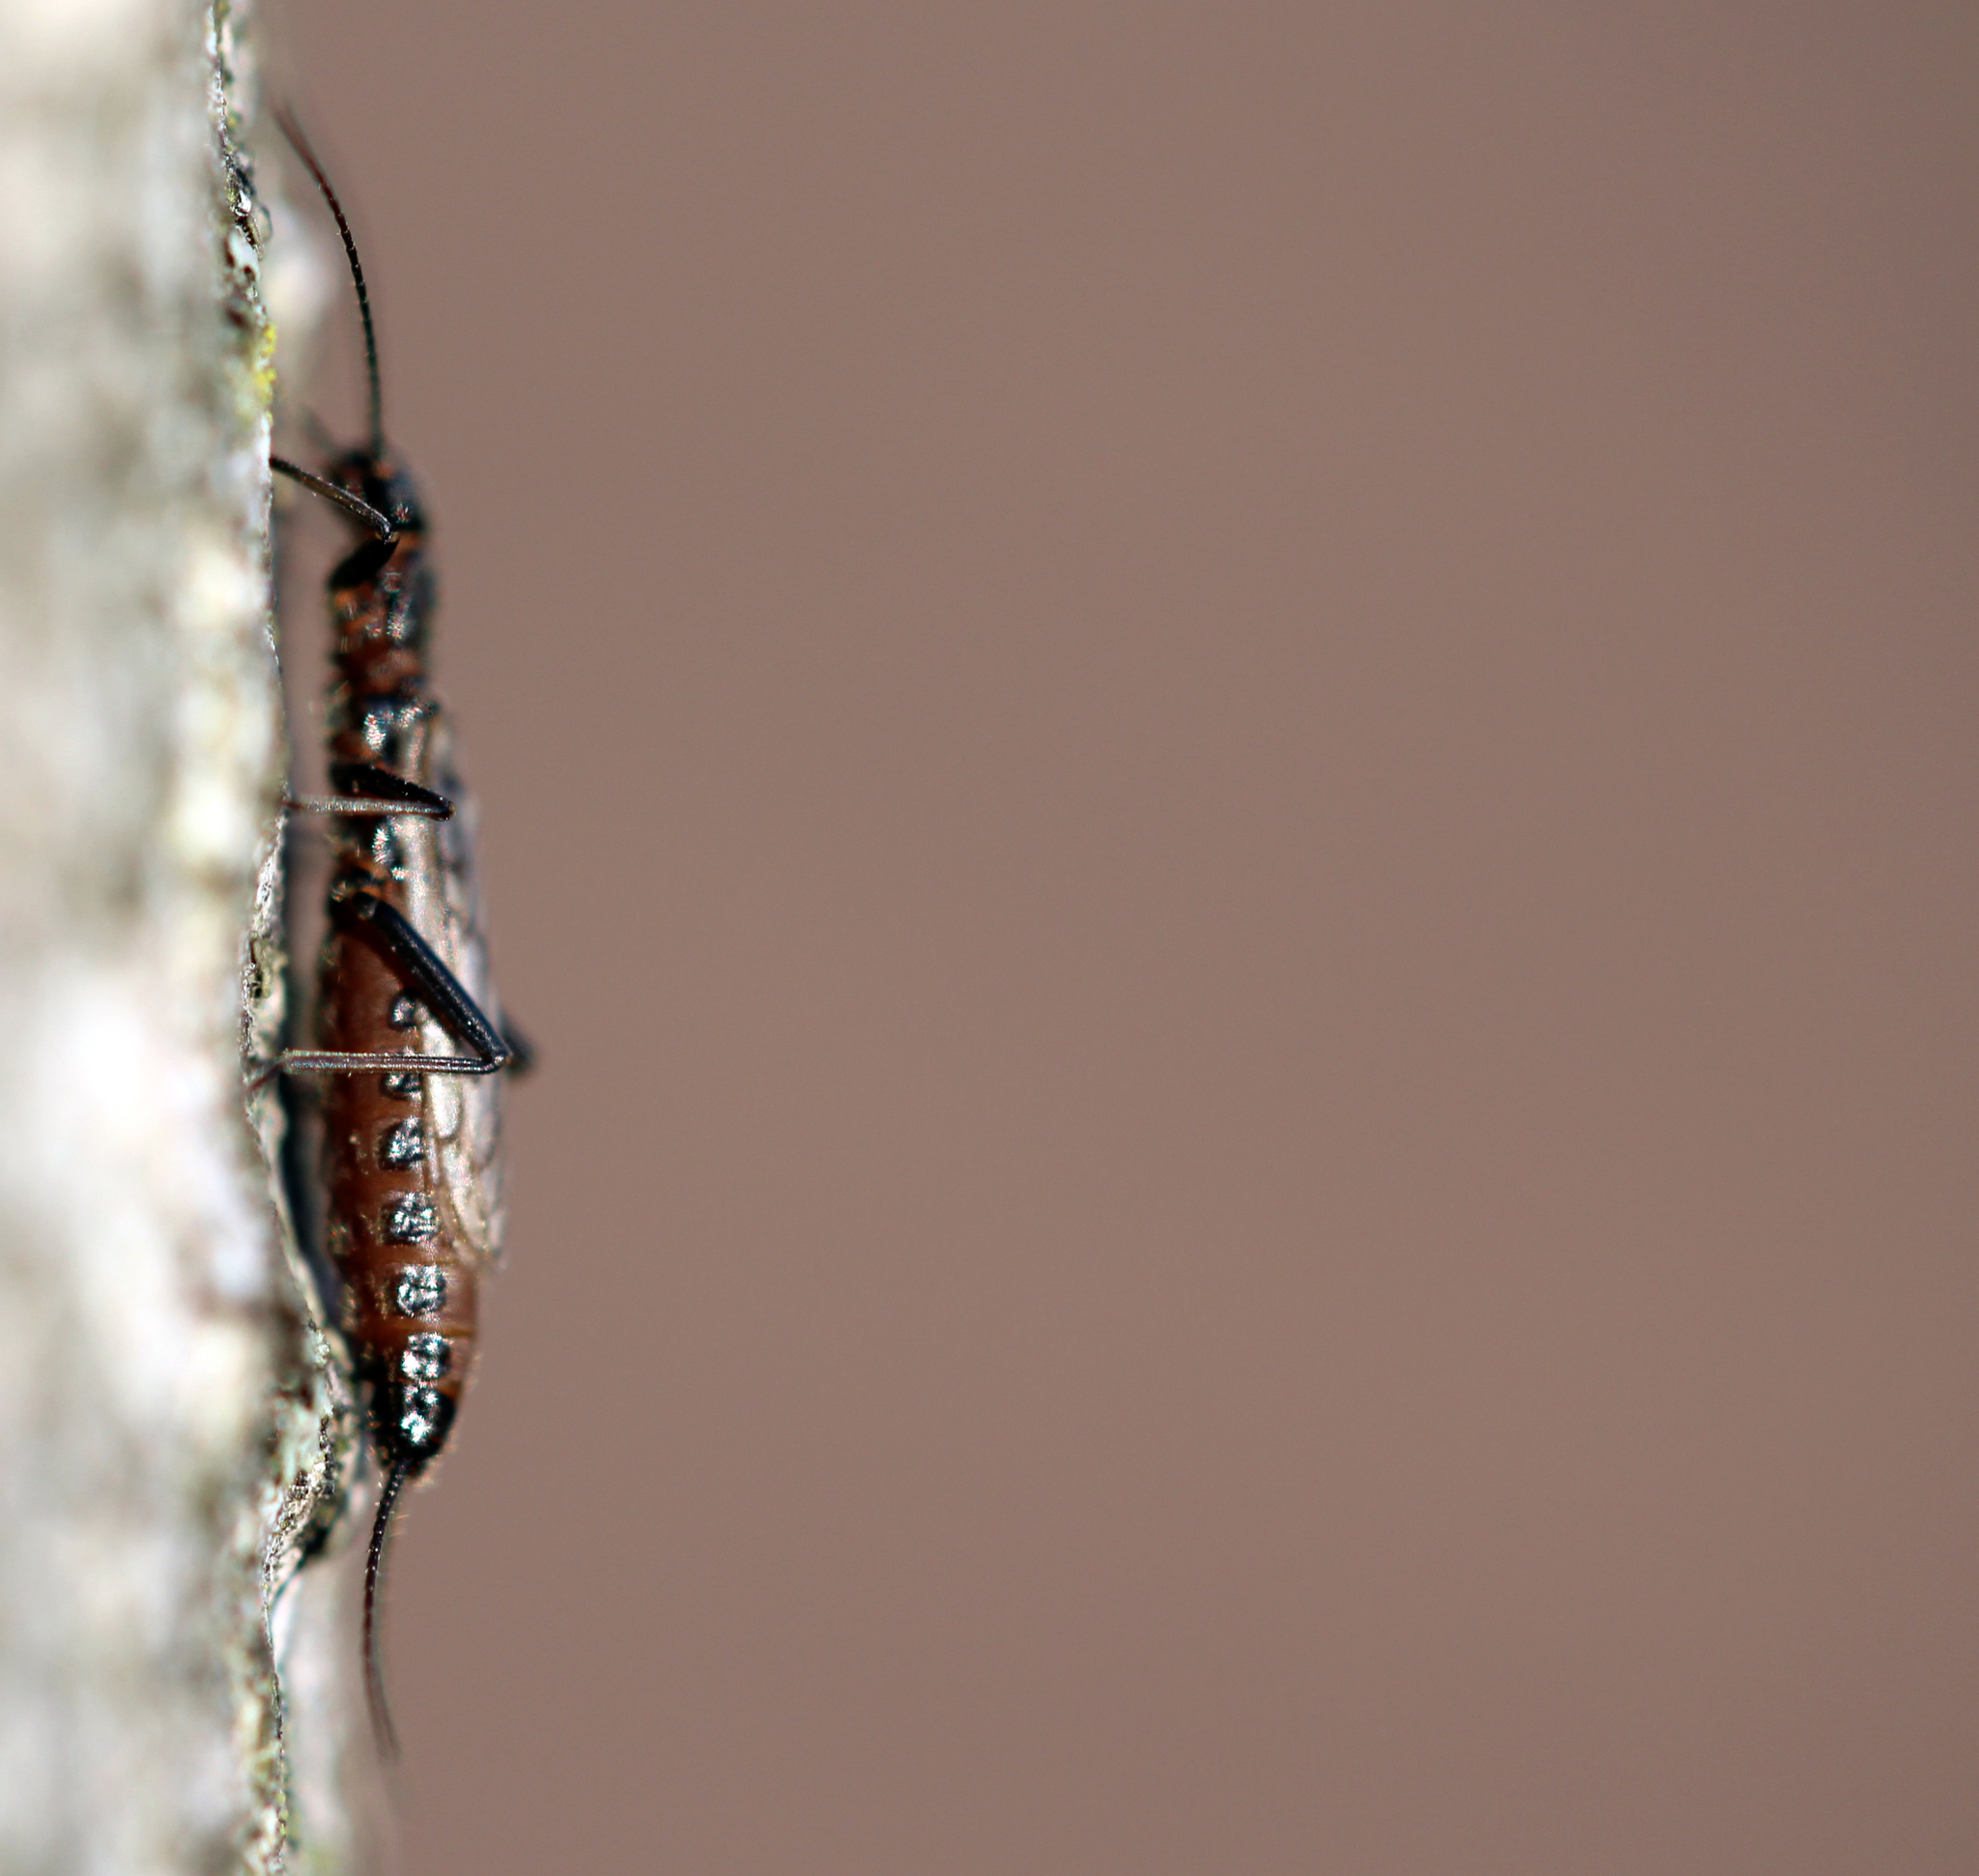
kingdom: Animalia
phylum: Arthropoda
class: Insecta
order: Plecoptera
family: Capniidae
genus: Allocapnia
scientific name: Allocapnia
